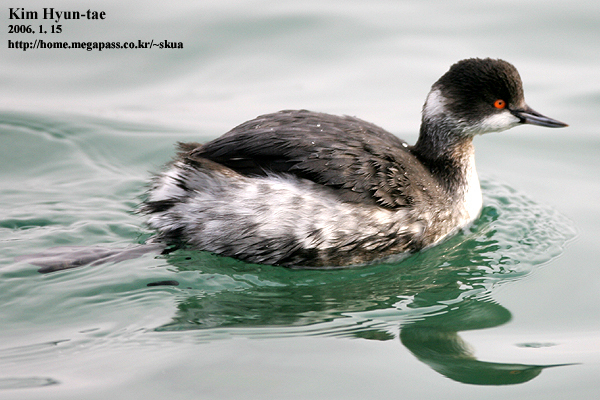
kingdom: Animalia
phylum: Chordata
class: Aves
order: Podicipediformes
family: Podicipedidae
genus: Podiceps
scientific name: Podiceps nigricollis
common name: Black-necked grebe
